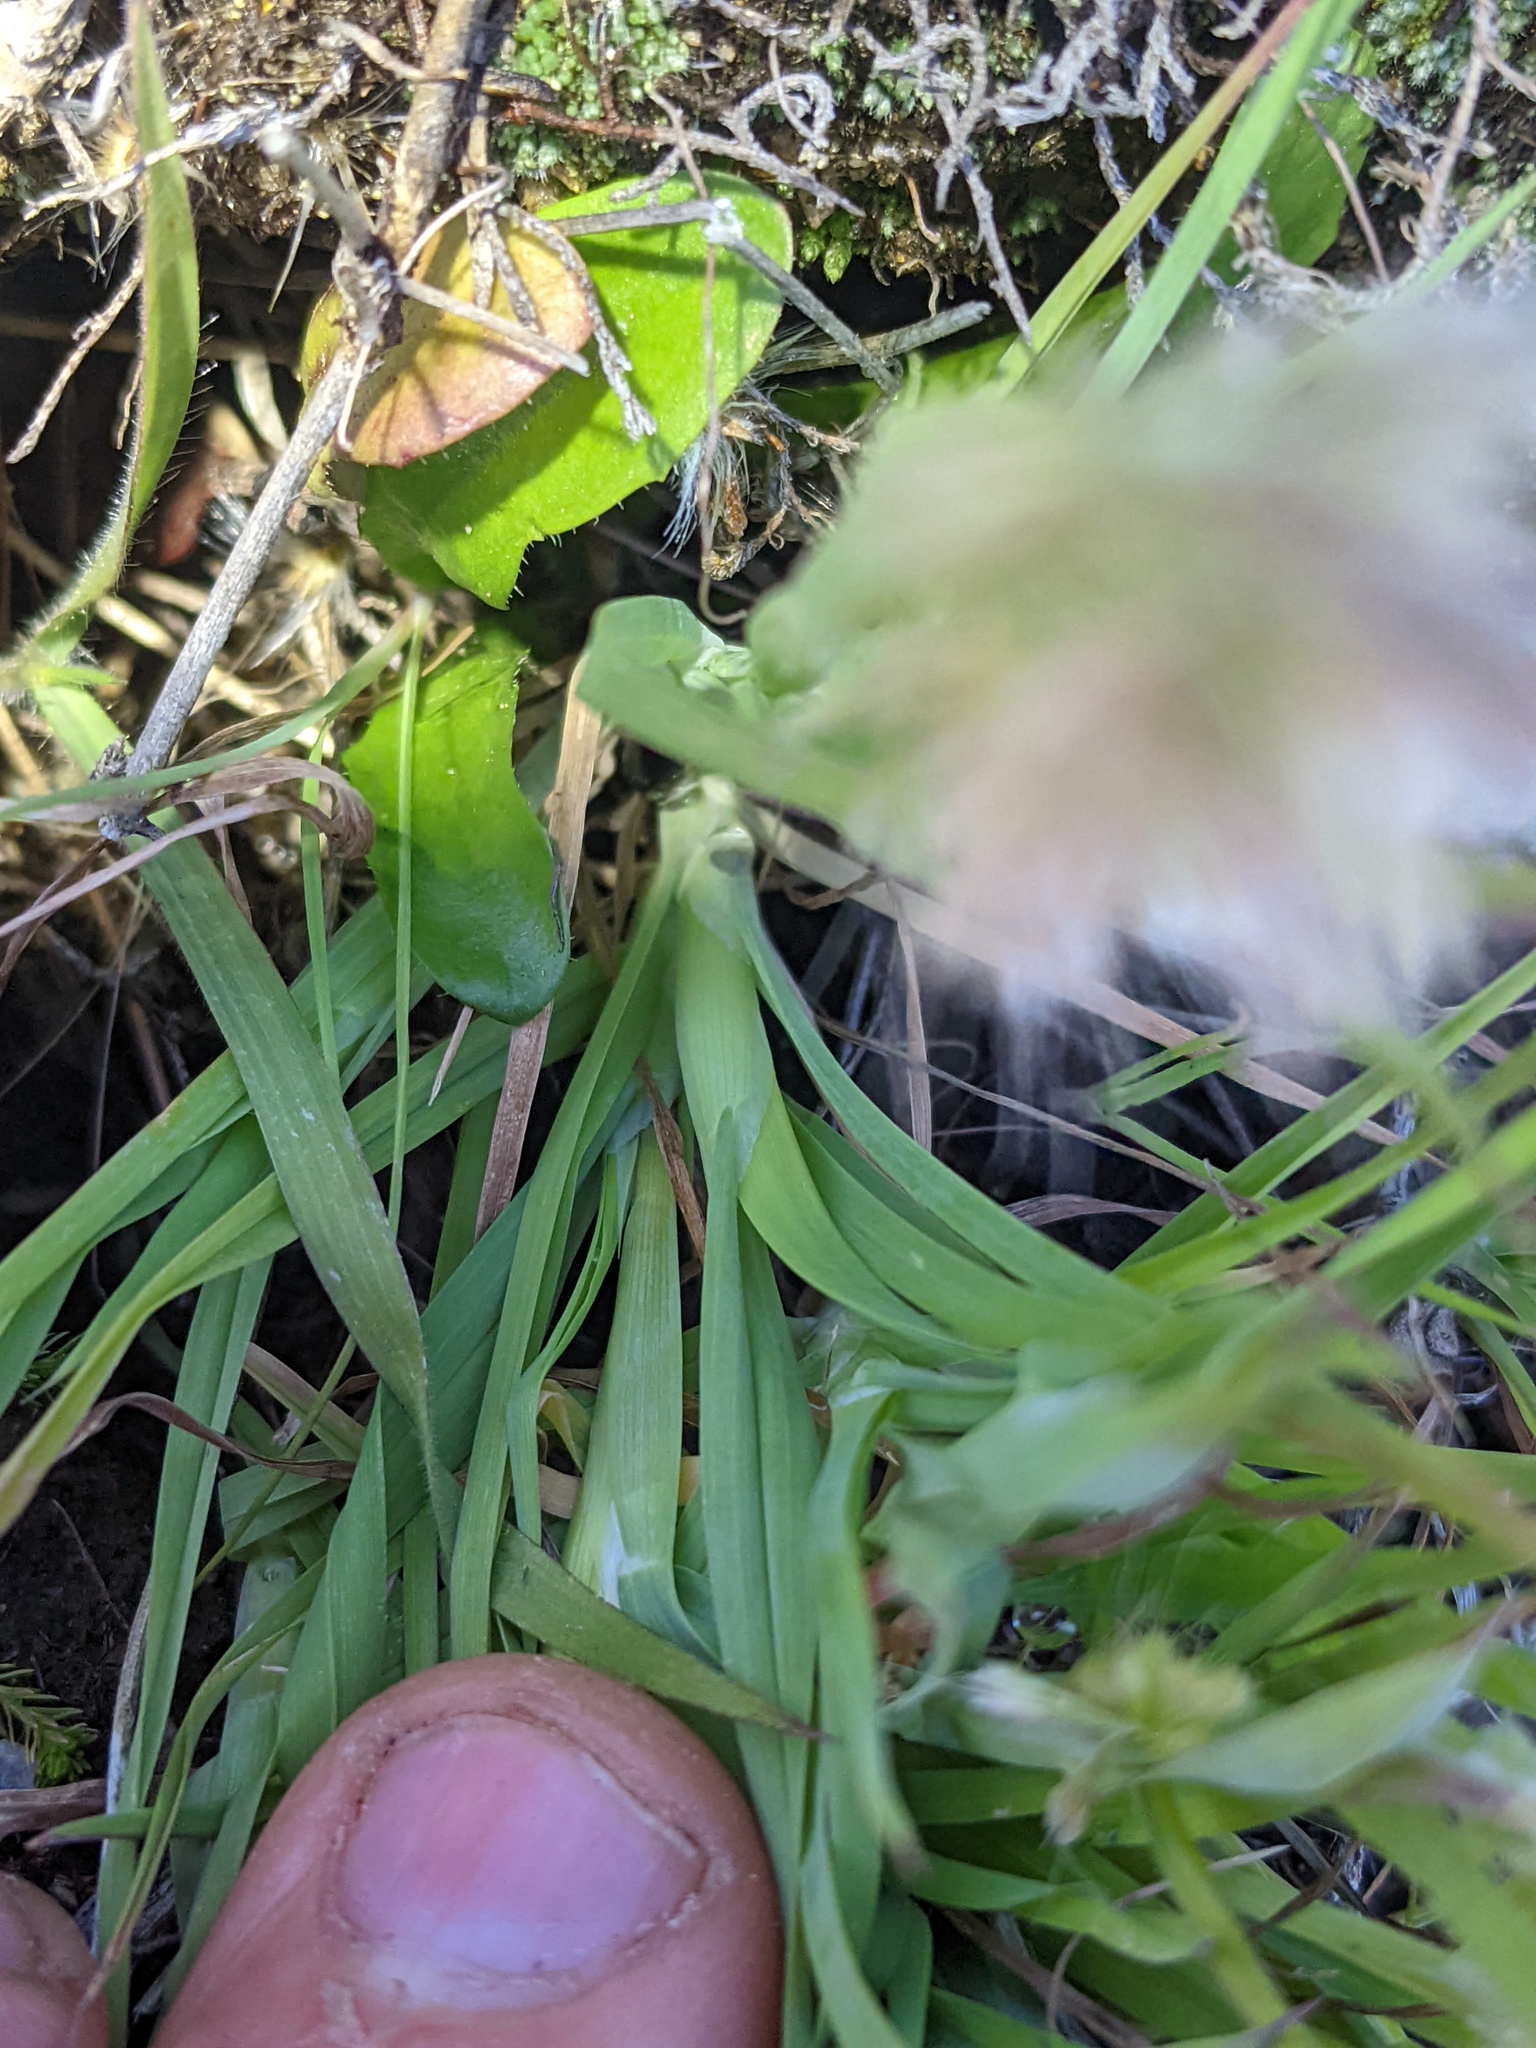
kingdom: Plantae
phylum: Tracheophyta
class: Liliopsida
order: Poales
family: Poaceae
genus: Lamarckia
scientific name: Lamarckia aurea
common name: Golden dog's-tail
